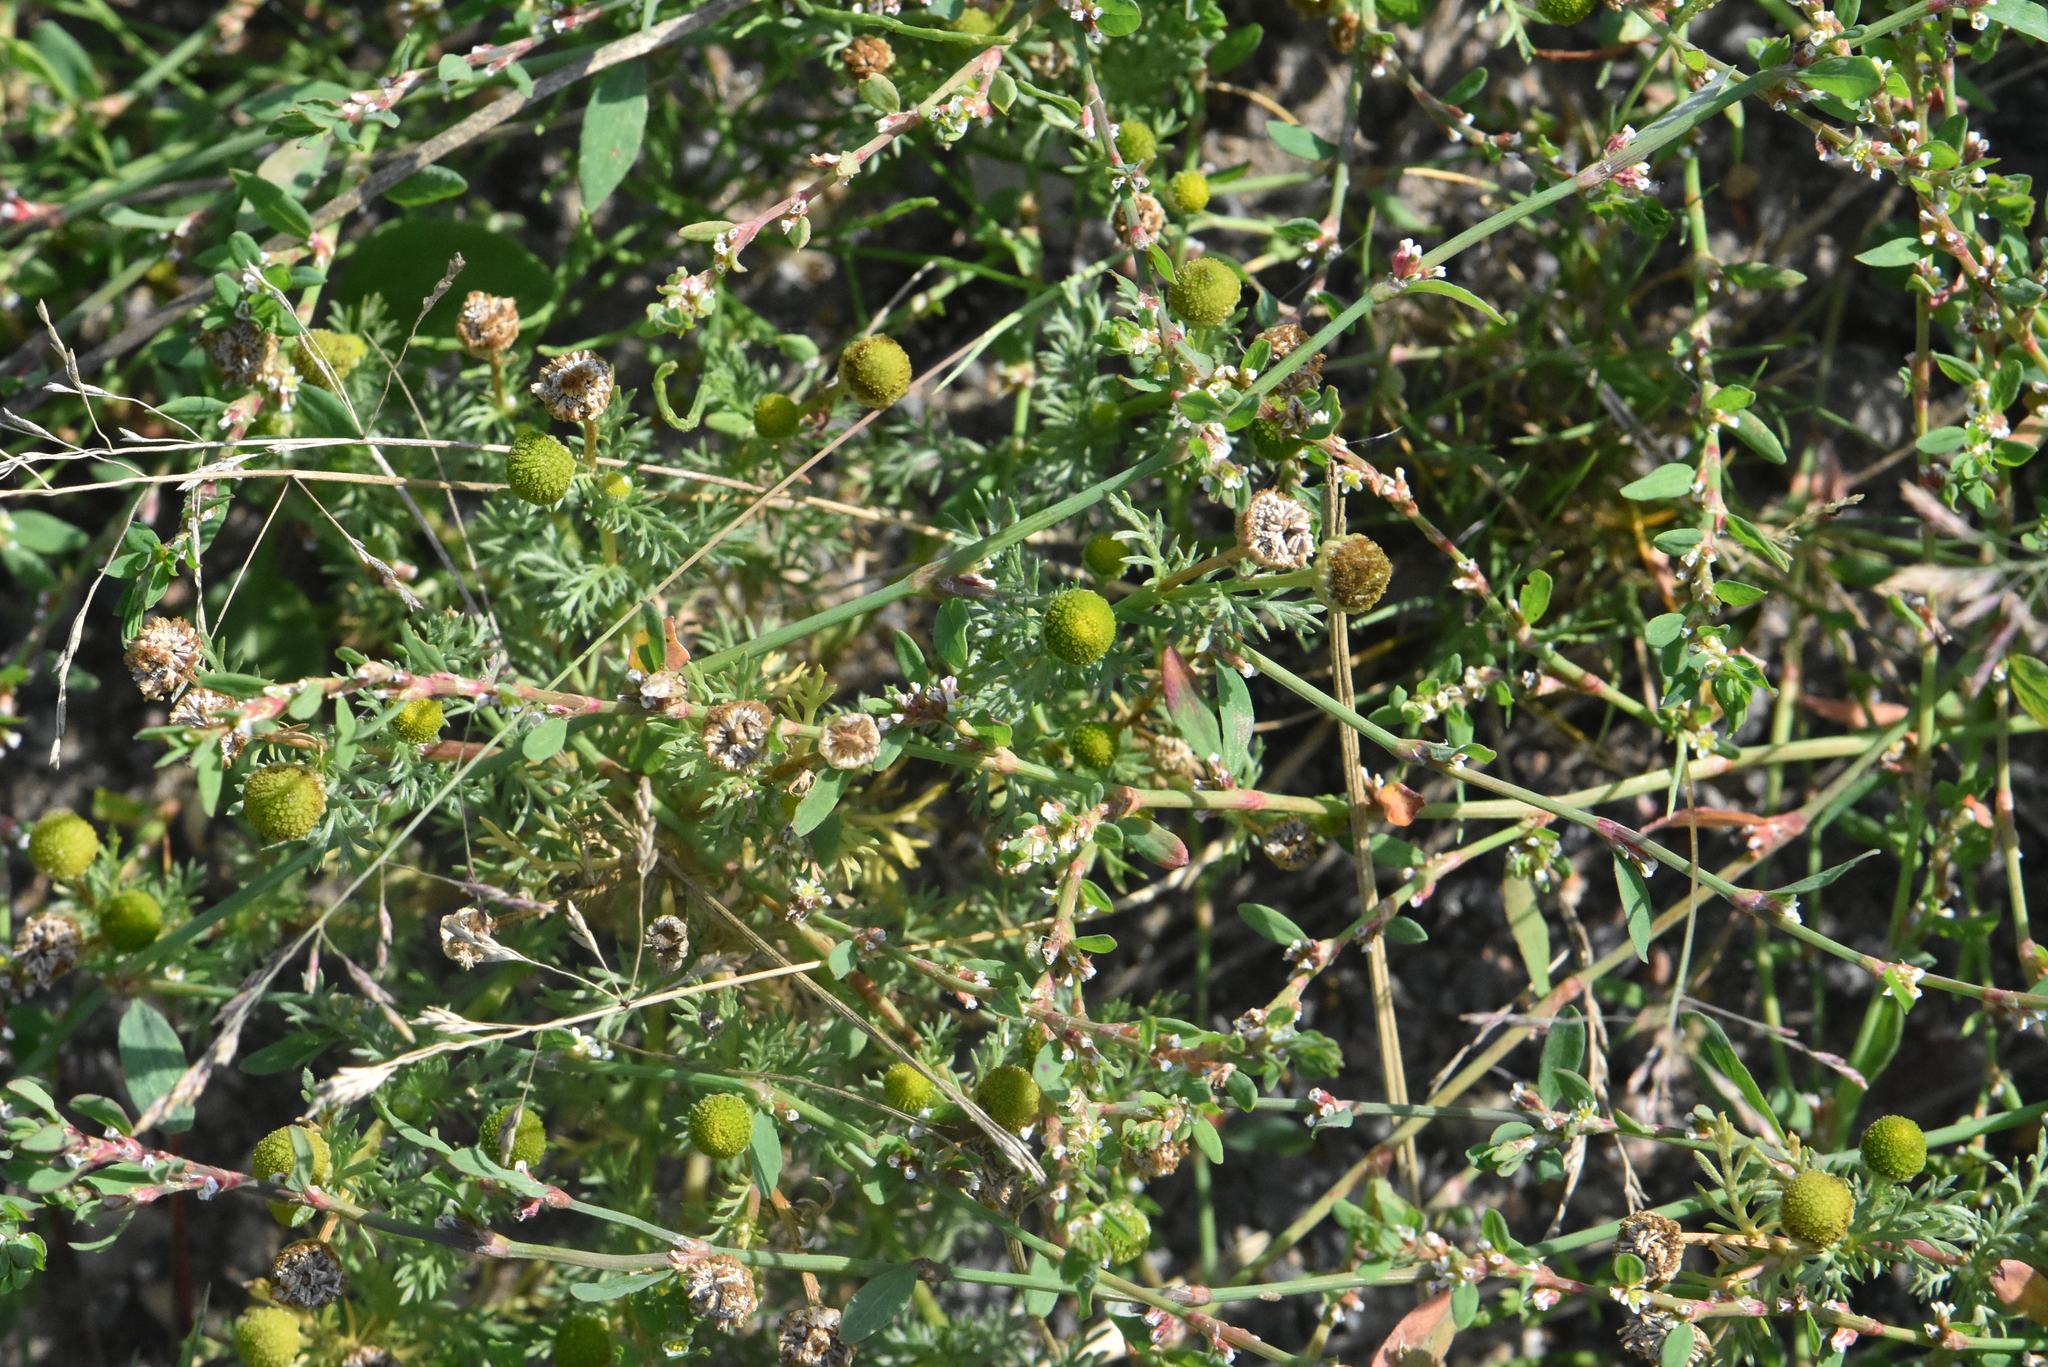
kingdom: Plantae
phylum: Tracheophyta
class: Magnoliopsida
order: Asterales
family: Asteraceae
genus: Matricaria
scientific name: Matricaria discoidea
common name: Disc mayweed
